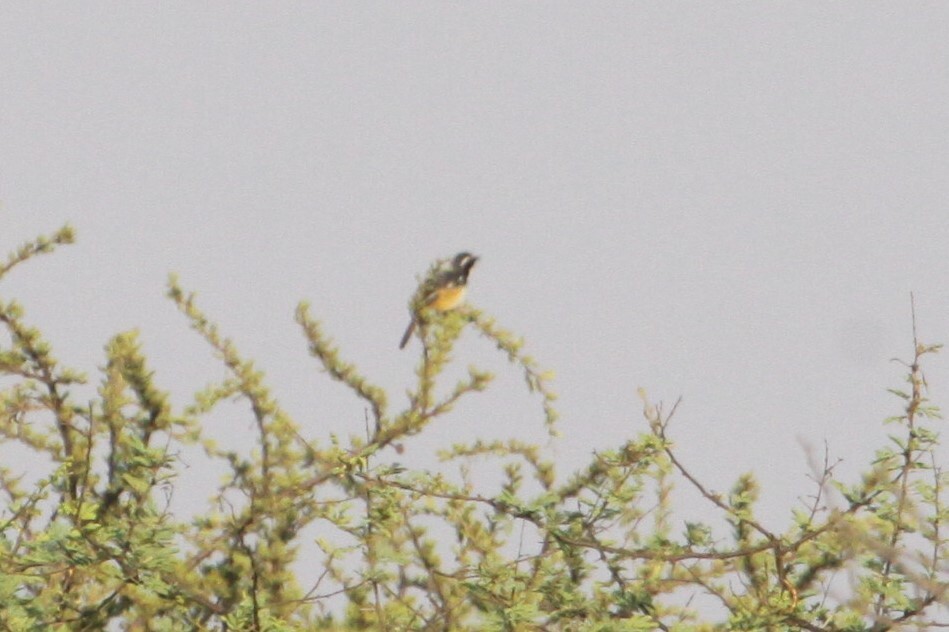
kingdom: Animalia
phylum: Chordata
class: Aves
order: Passeriformes
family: Muscicapidae
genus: Cossypha
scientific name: Cossypha humeralis
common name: White-throated robin-chat
